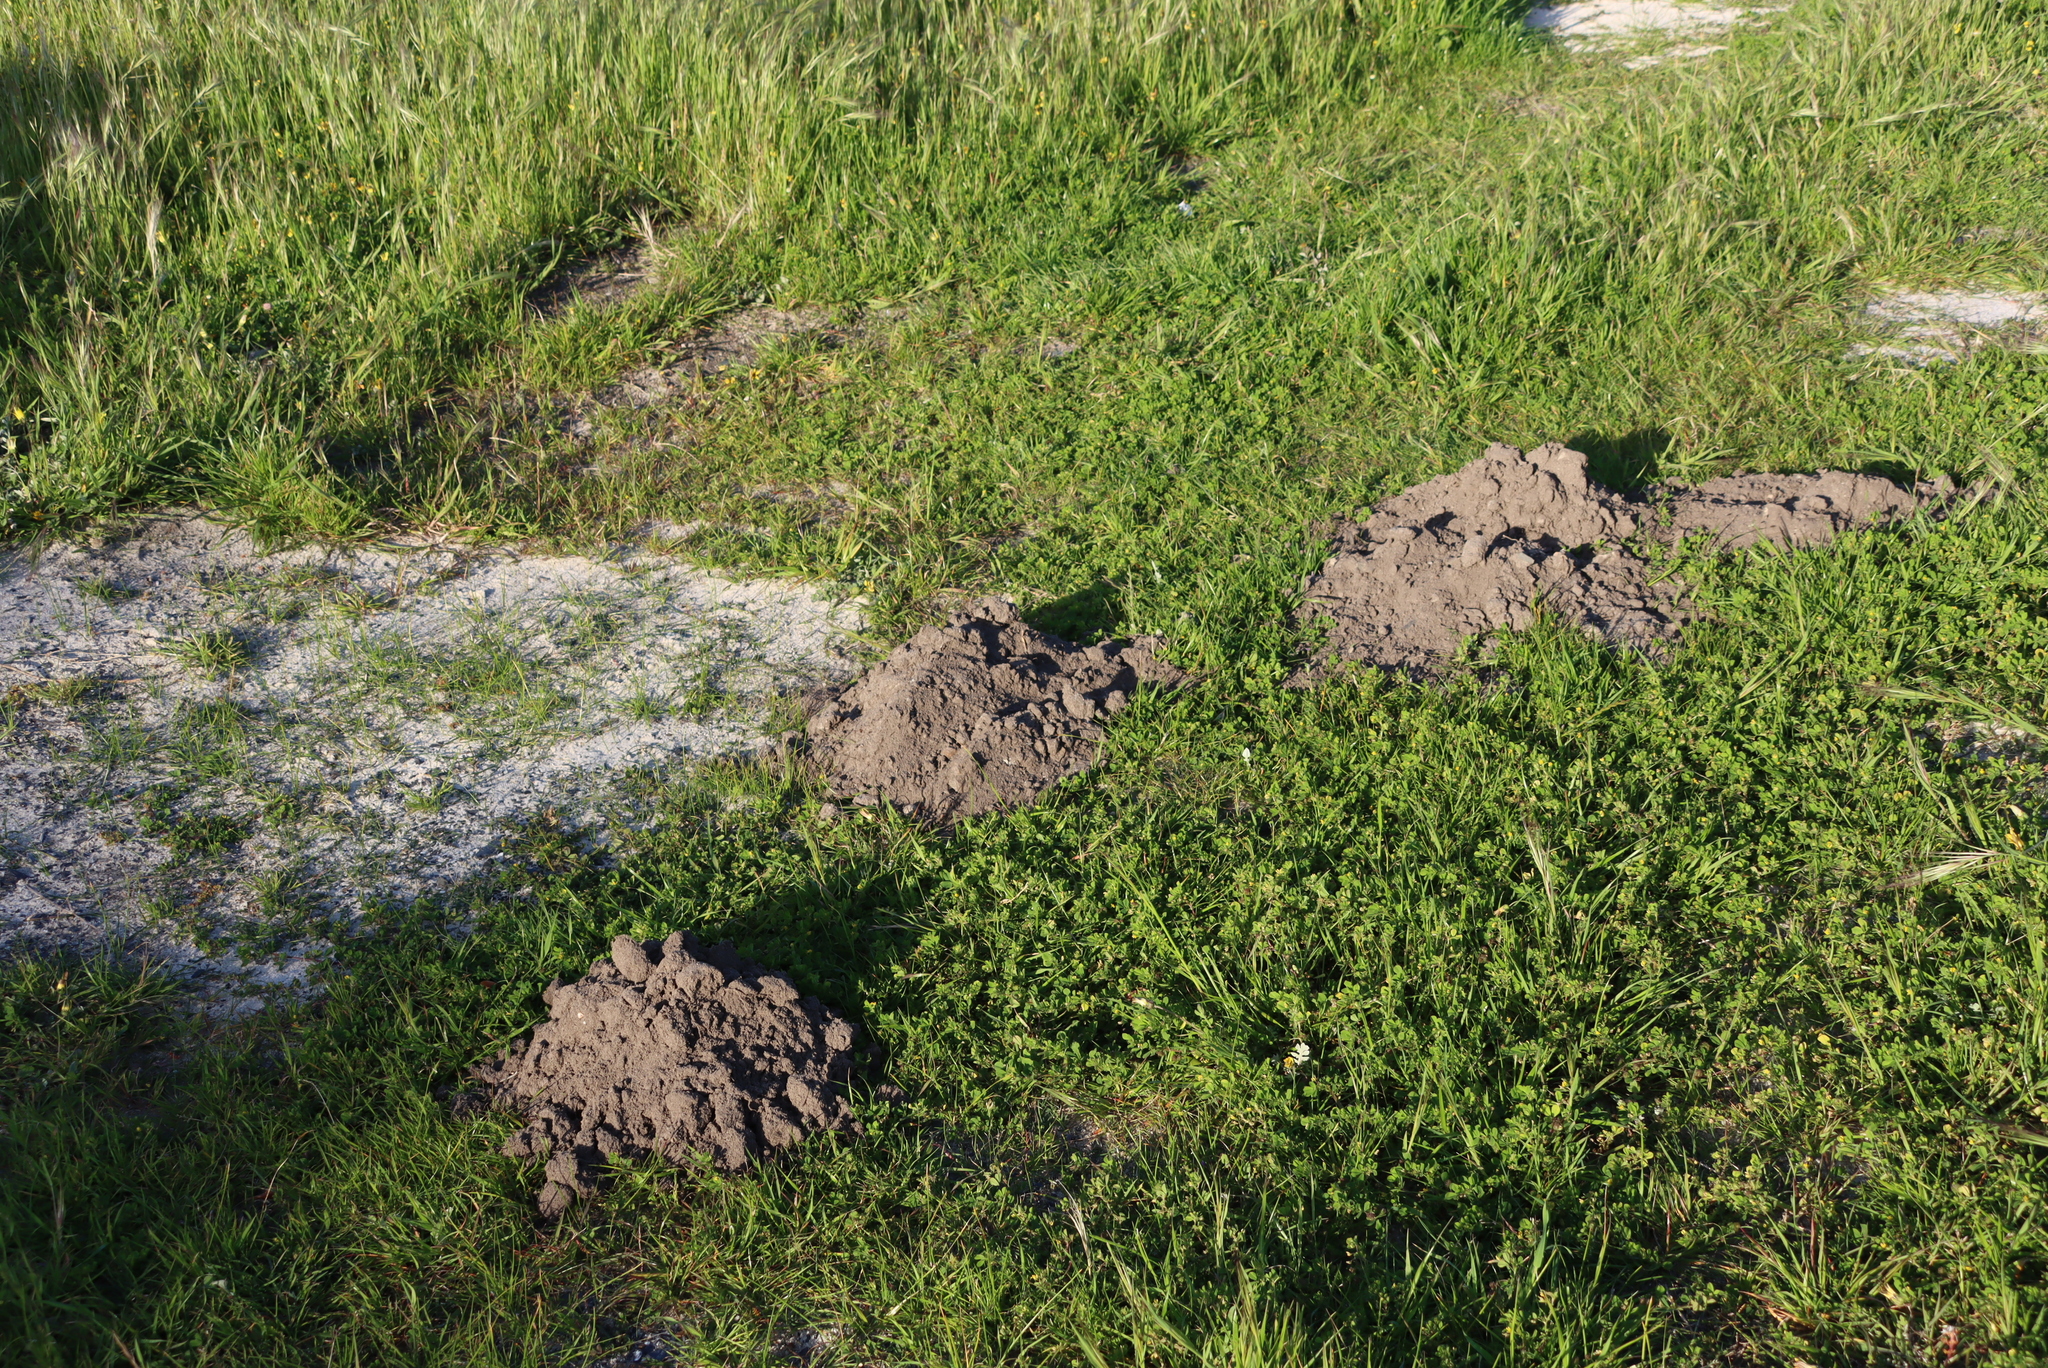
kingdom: Animalia
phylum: Chordata
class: Mammalia
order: Rodentia
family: Bathyergidae
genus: Bathyergus
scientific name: Bathyergus suillus
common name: Cape dune mole rat
